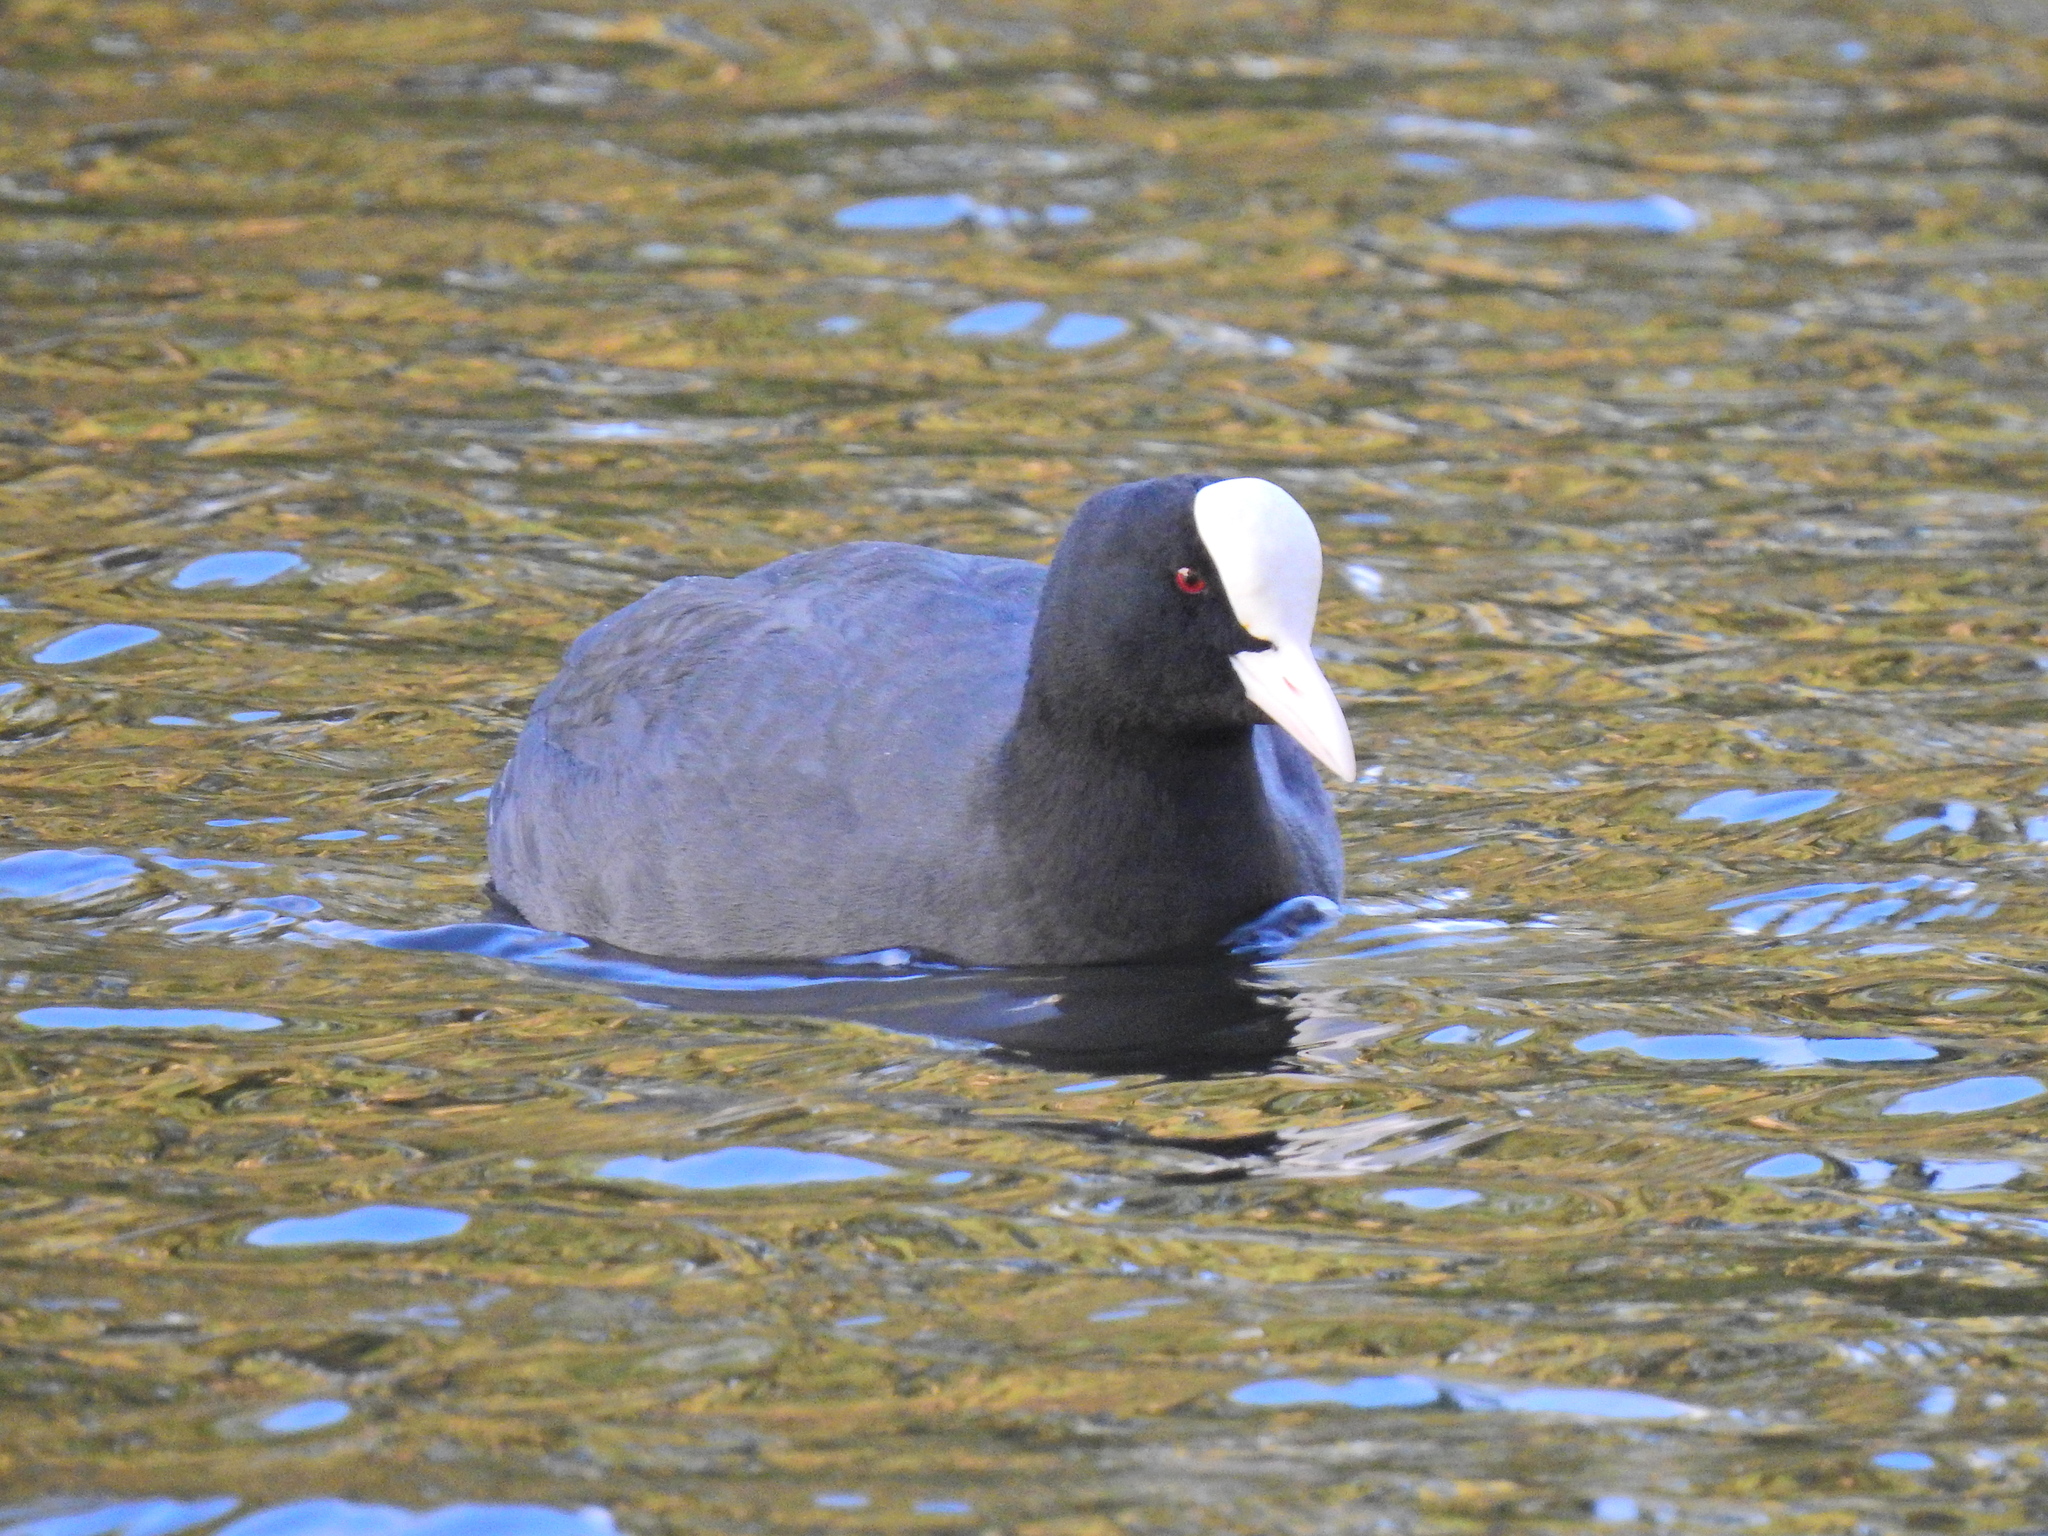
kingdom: Animalia
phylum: Chordata
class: Aves
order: Gruiformes
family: Rallidae
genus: Fulica
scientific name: Fulica atra
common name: Eurasian coot
